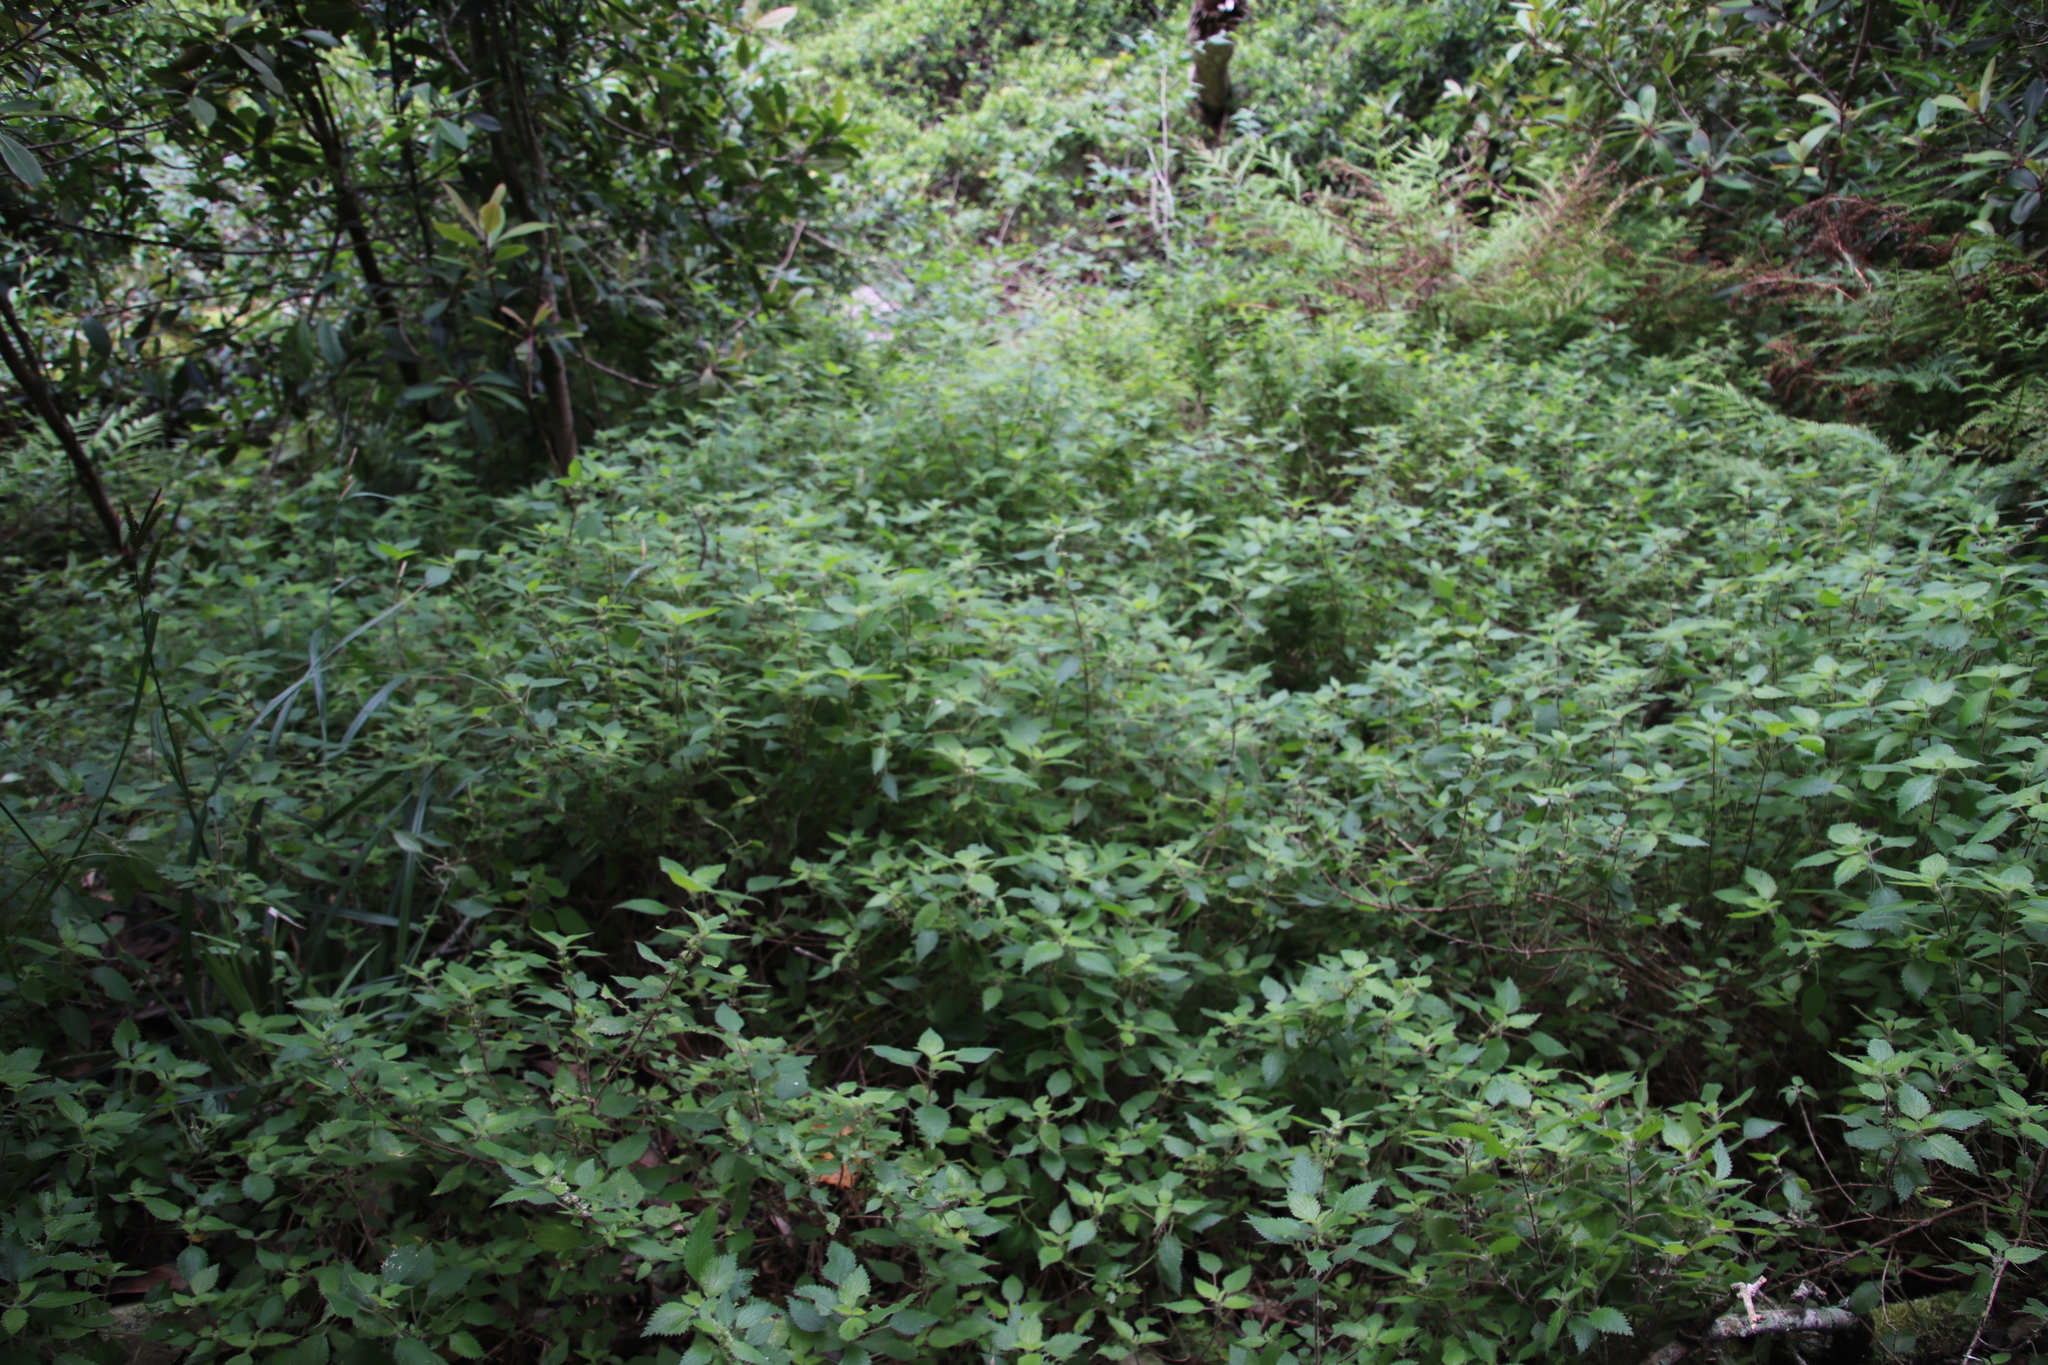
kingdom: Plantae
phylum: Tracheophyta
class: Magnoliopsida
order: Rosales
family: Urticaceae
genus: Droguetia
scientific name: Droguetia iners
